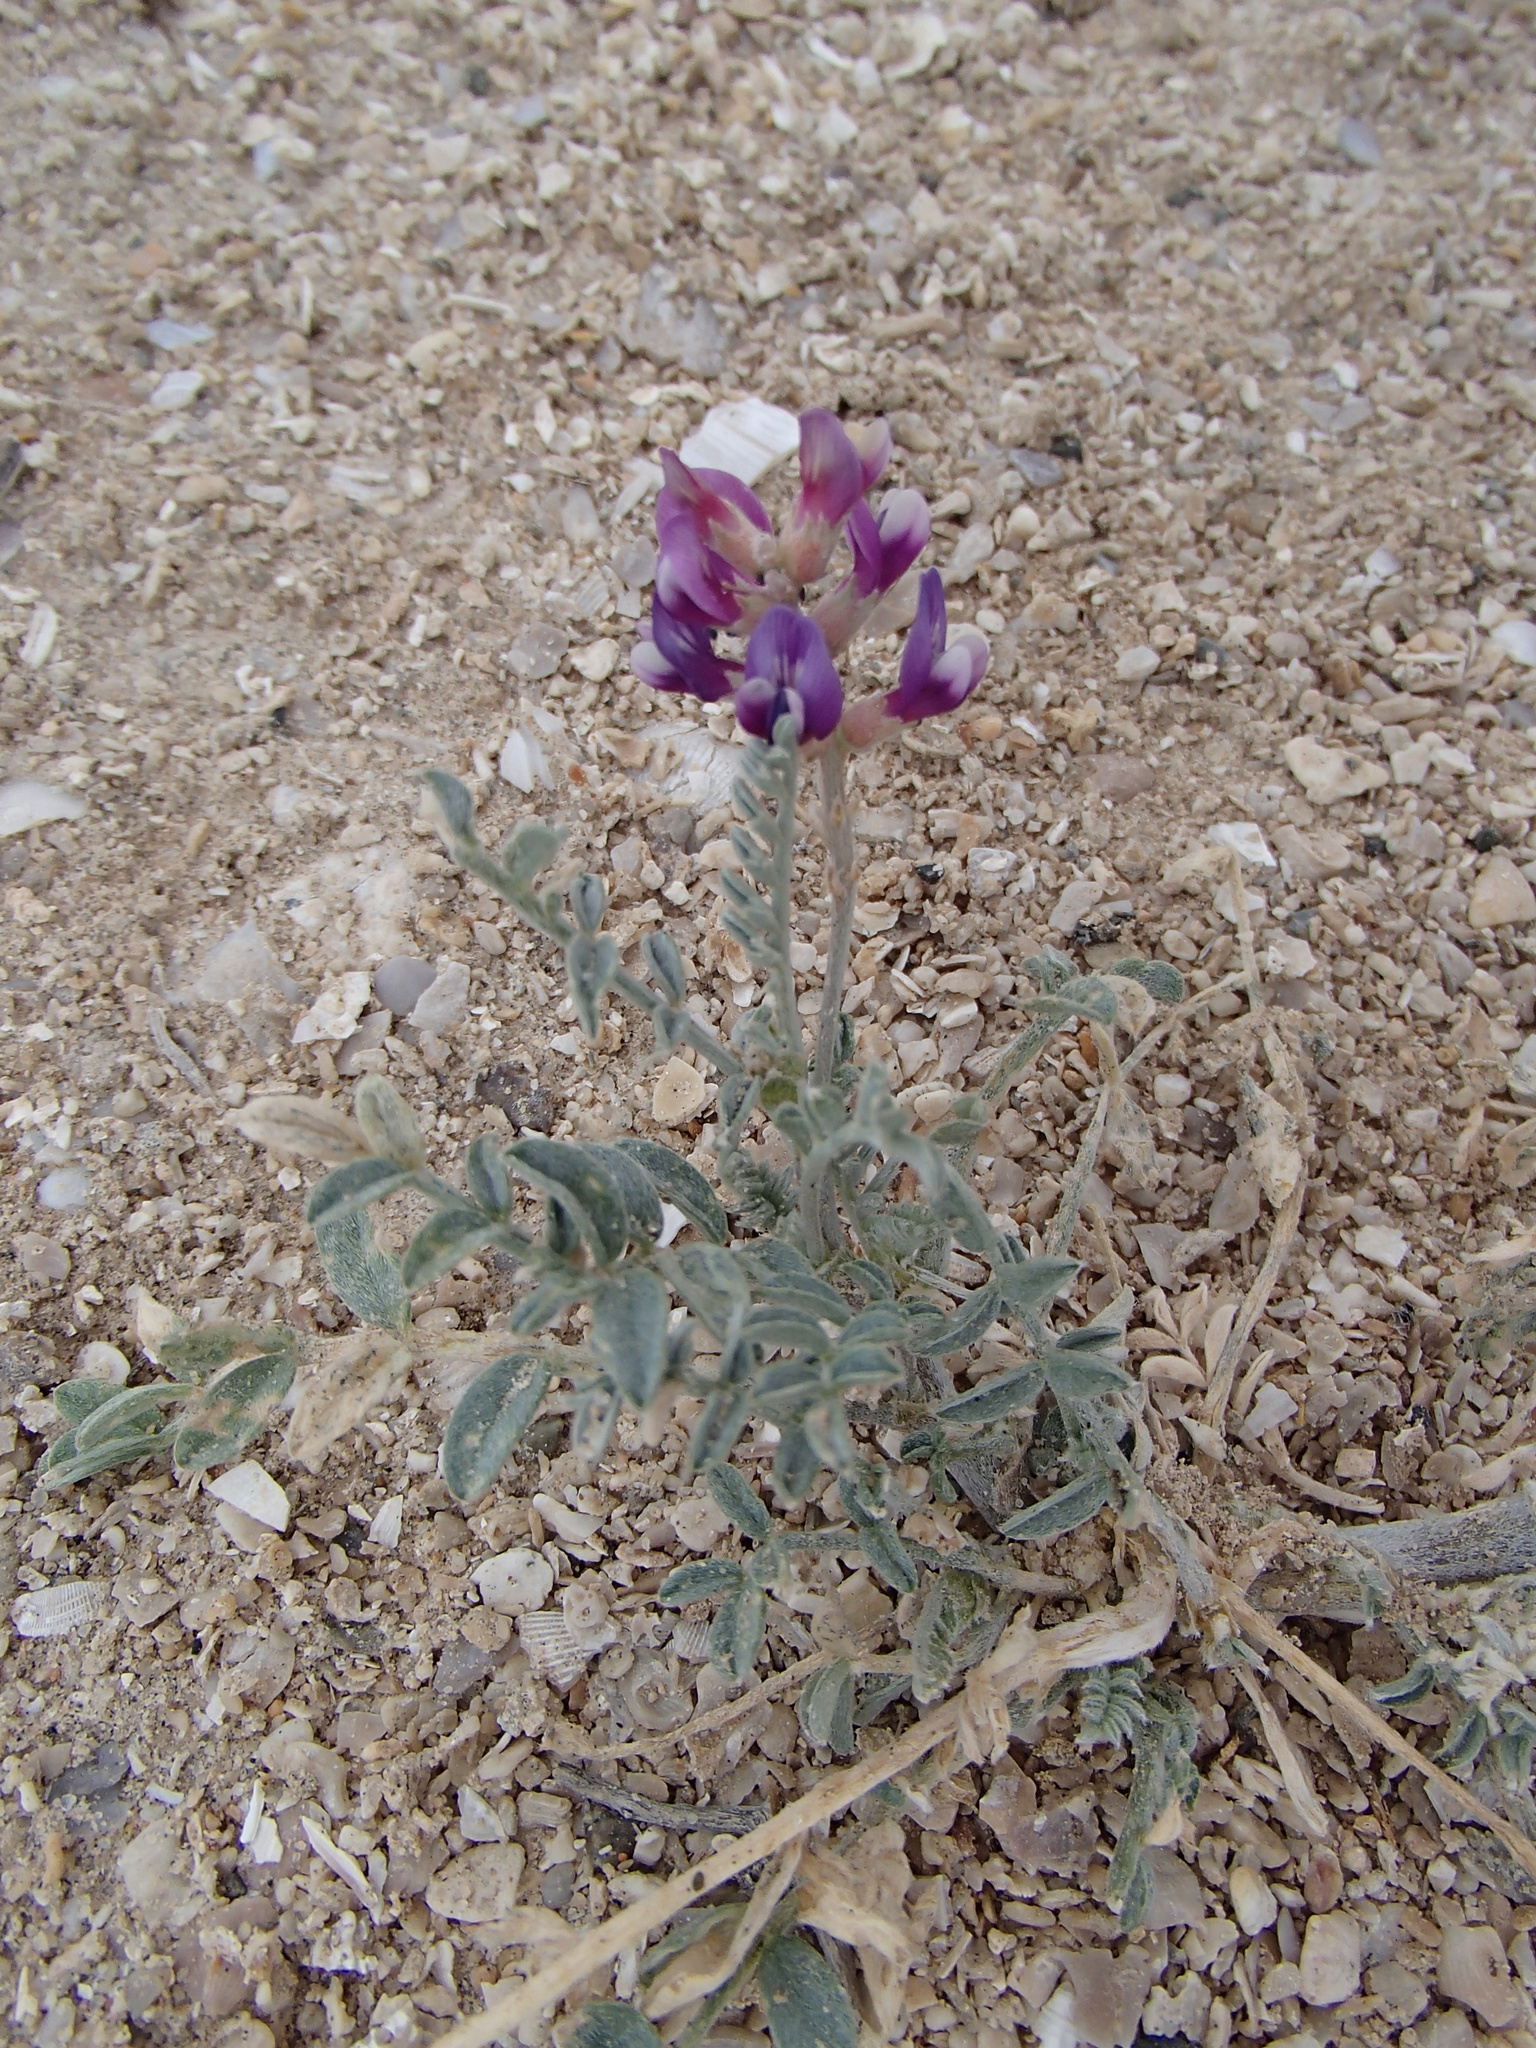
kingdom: Plantae
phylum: Tracheophyta
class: Magnoliopsida
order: Fabales
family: Fabaceae
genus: Astragalus
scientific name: Astragalus magdalenae
